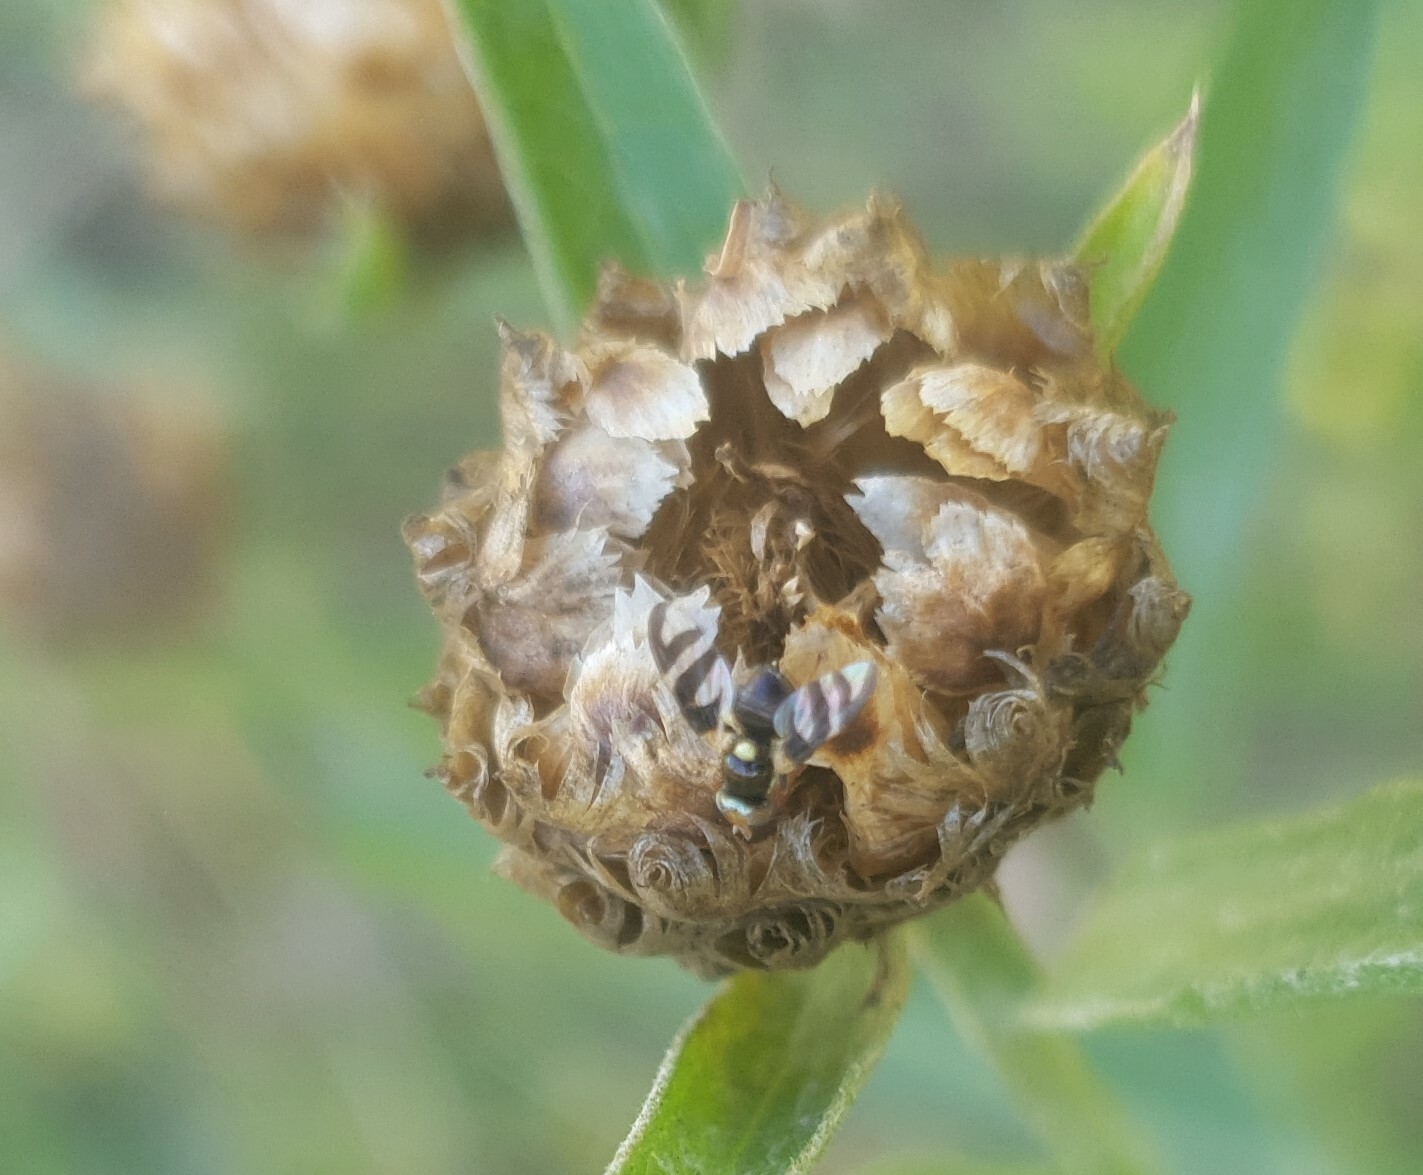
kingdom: Animalia
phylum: Arthropoda
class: Insecta
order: Diptera
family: Tephritidae
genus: Urophora
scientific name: Urophora quadrifasciata
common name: Knapweed seedhead fly
